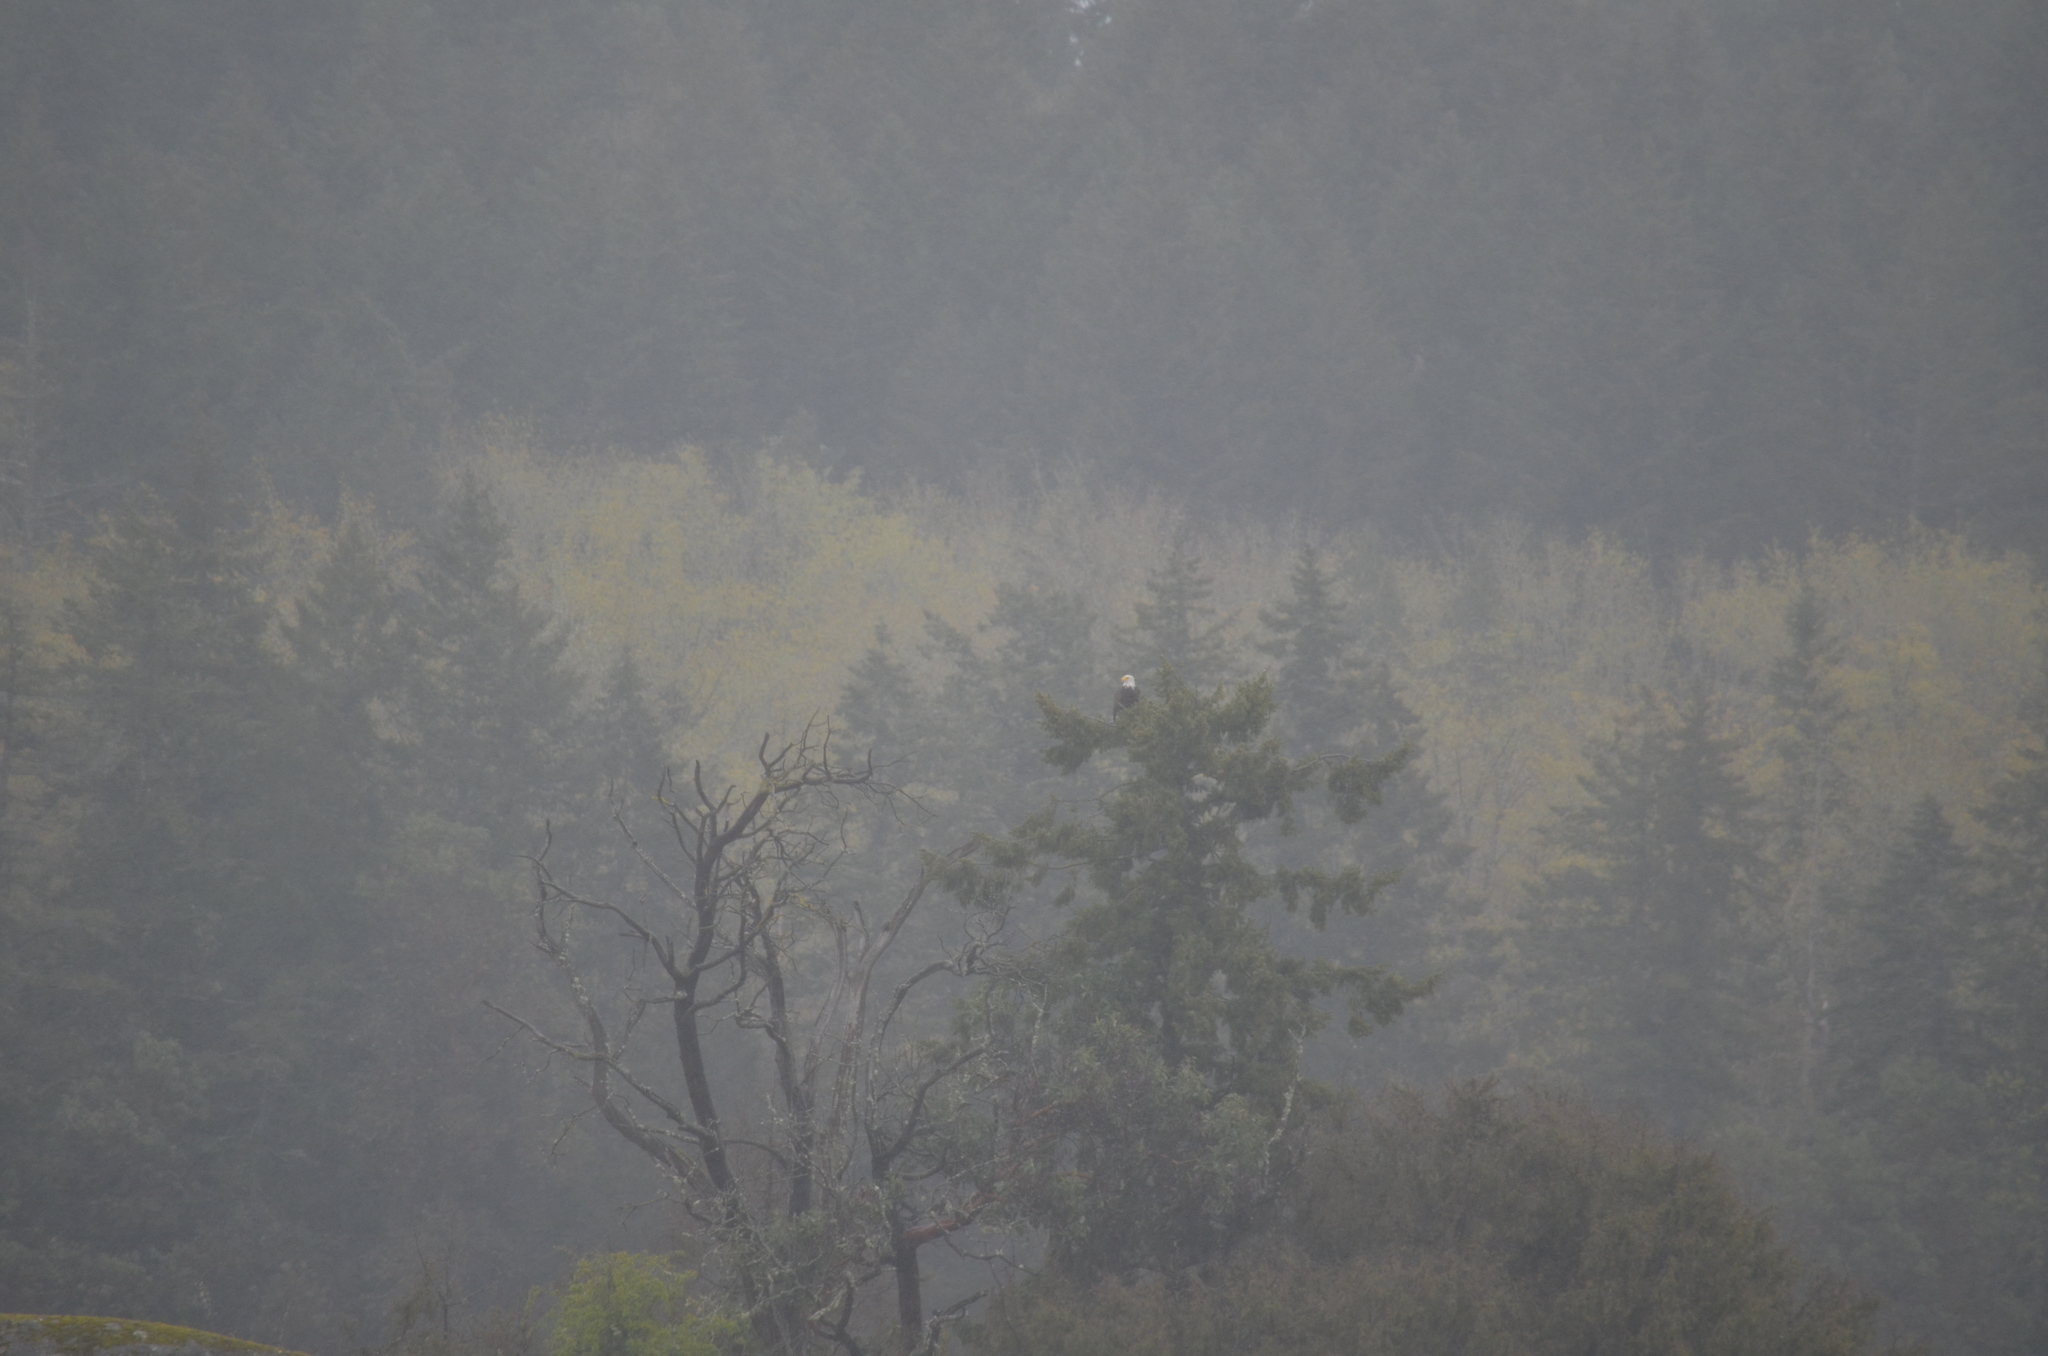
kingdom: Animalia
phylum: Chordata
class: Aves
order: Accipitriformes
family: Accipitridae
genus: Haliaeetus
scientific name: Haliaeetus leucocephalus
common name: Bald eagle
